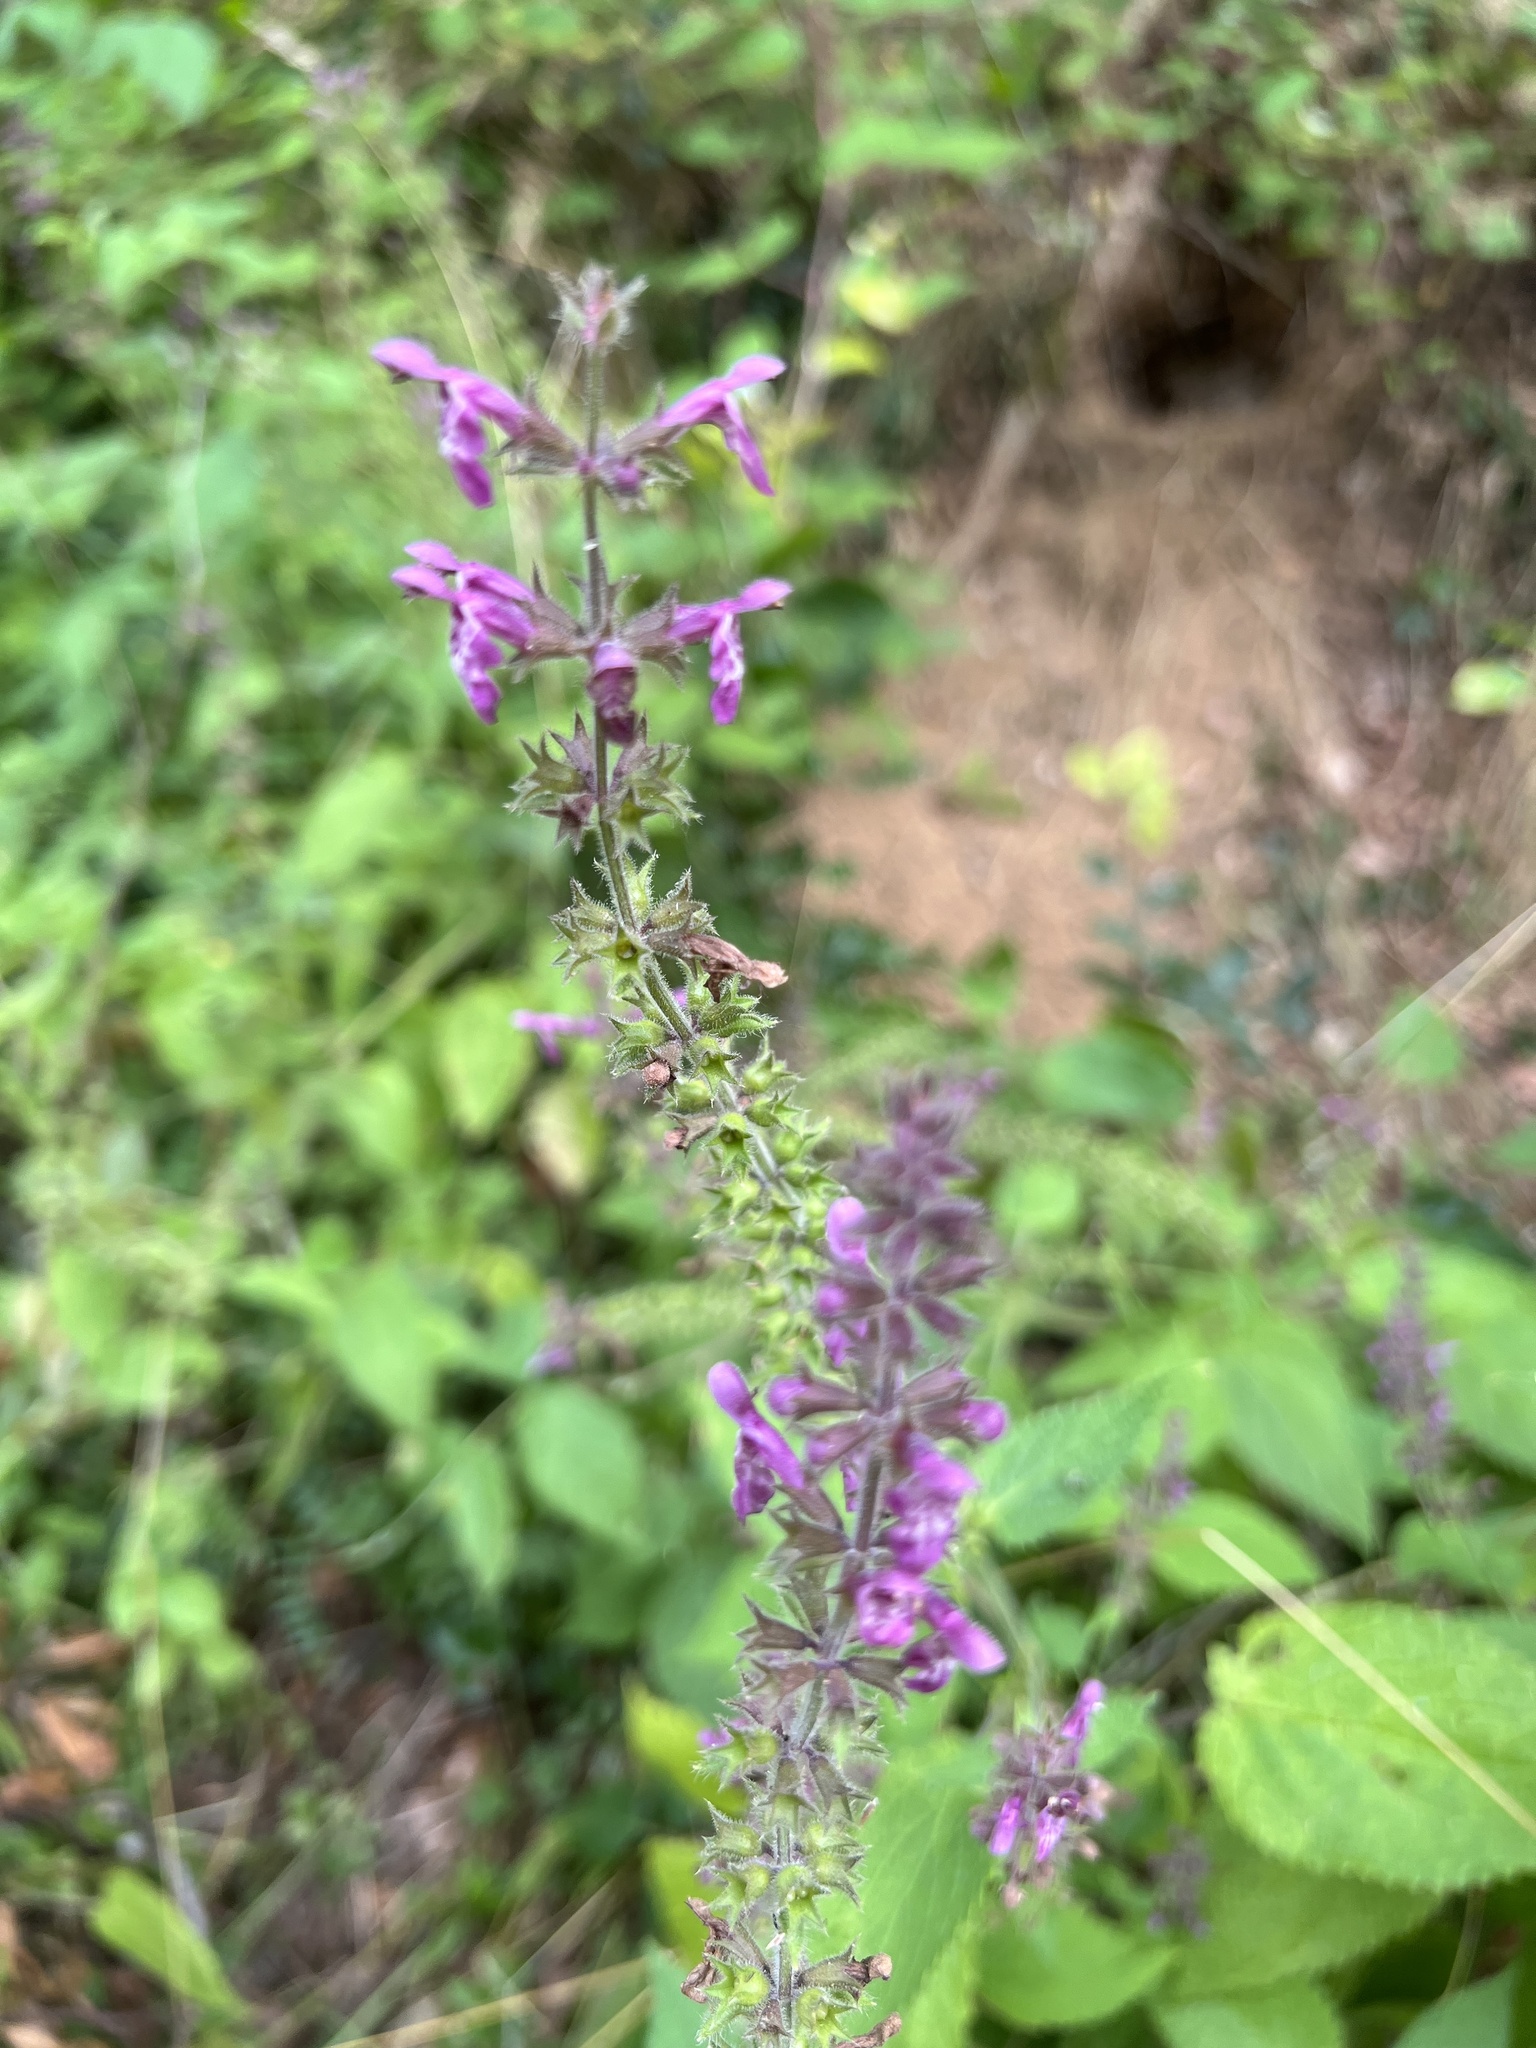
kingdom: Plantae
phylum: Tracheophyta
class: Magnoliopsida
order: Lamiales
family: Lamiaceae
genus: Stachys
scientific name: Stachys sylvatica
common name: Hedge woundwort
